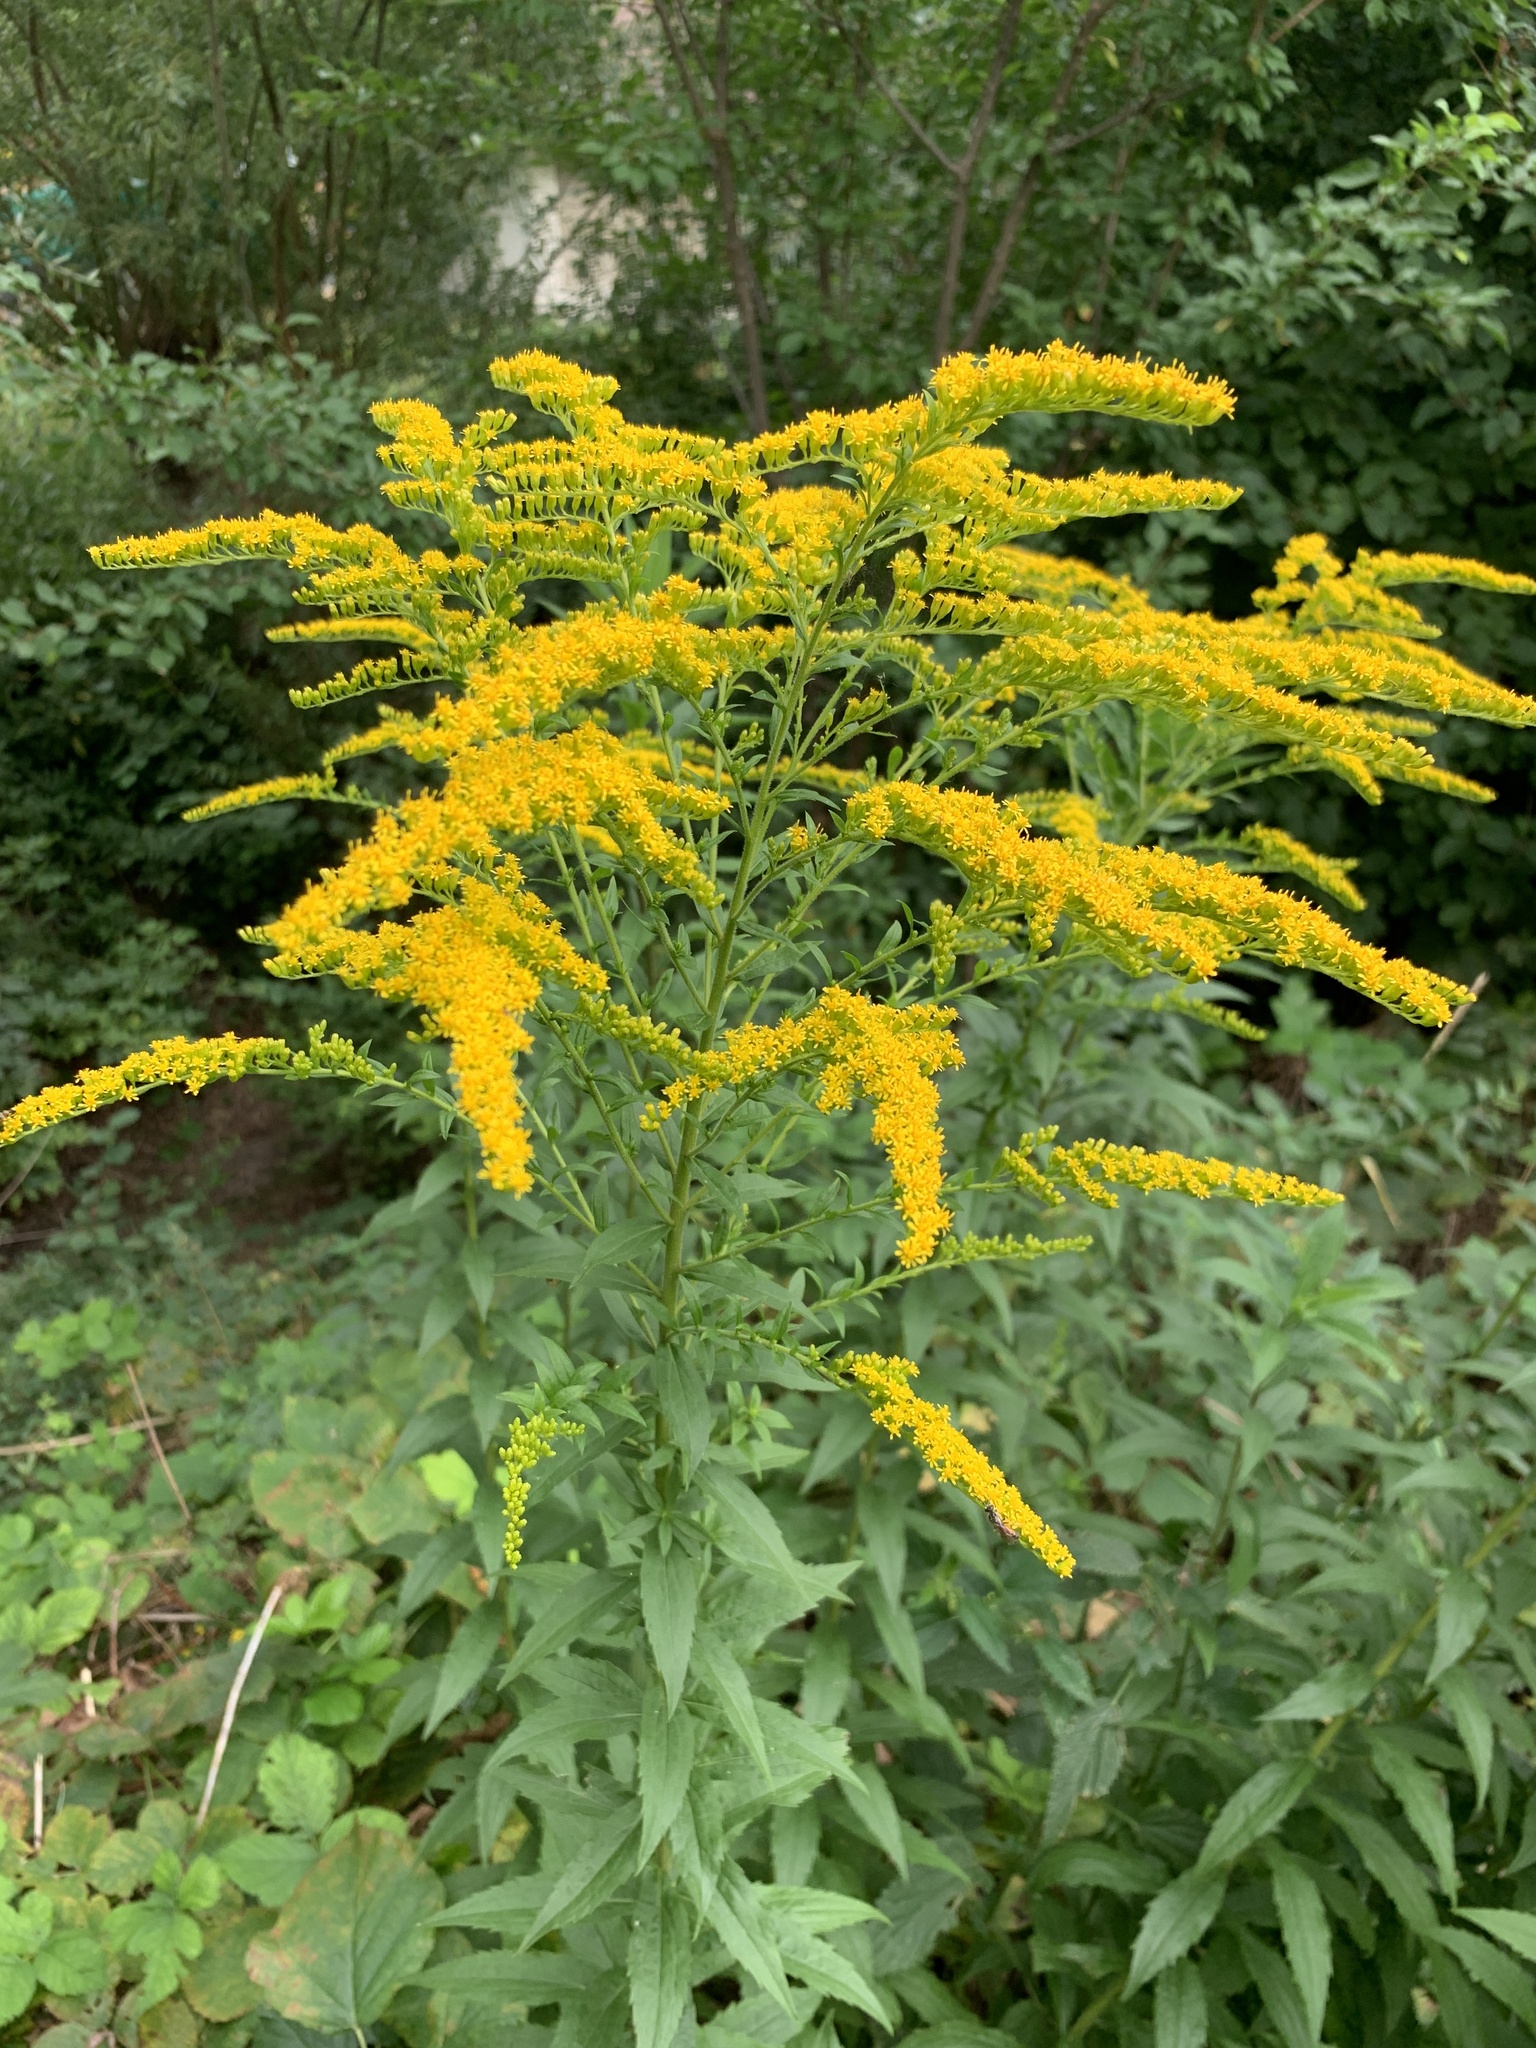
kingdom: Plantae
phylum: Tracheophyta
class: Magnoliopsida
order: Asterales
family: Asteraceae
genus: Solidago
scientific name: Solidago canadensis
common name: Canada goldenrod
